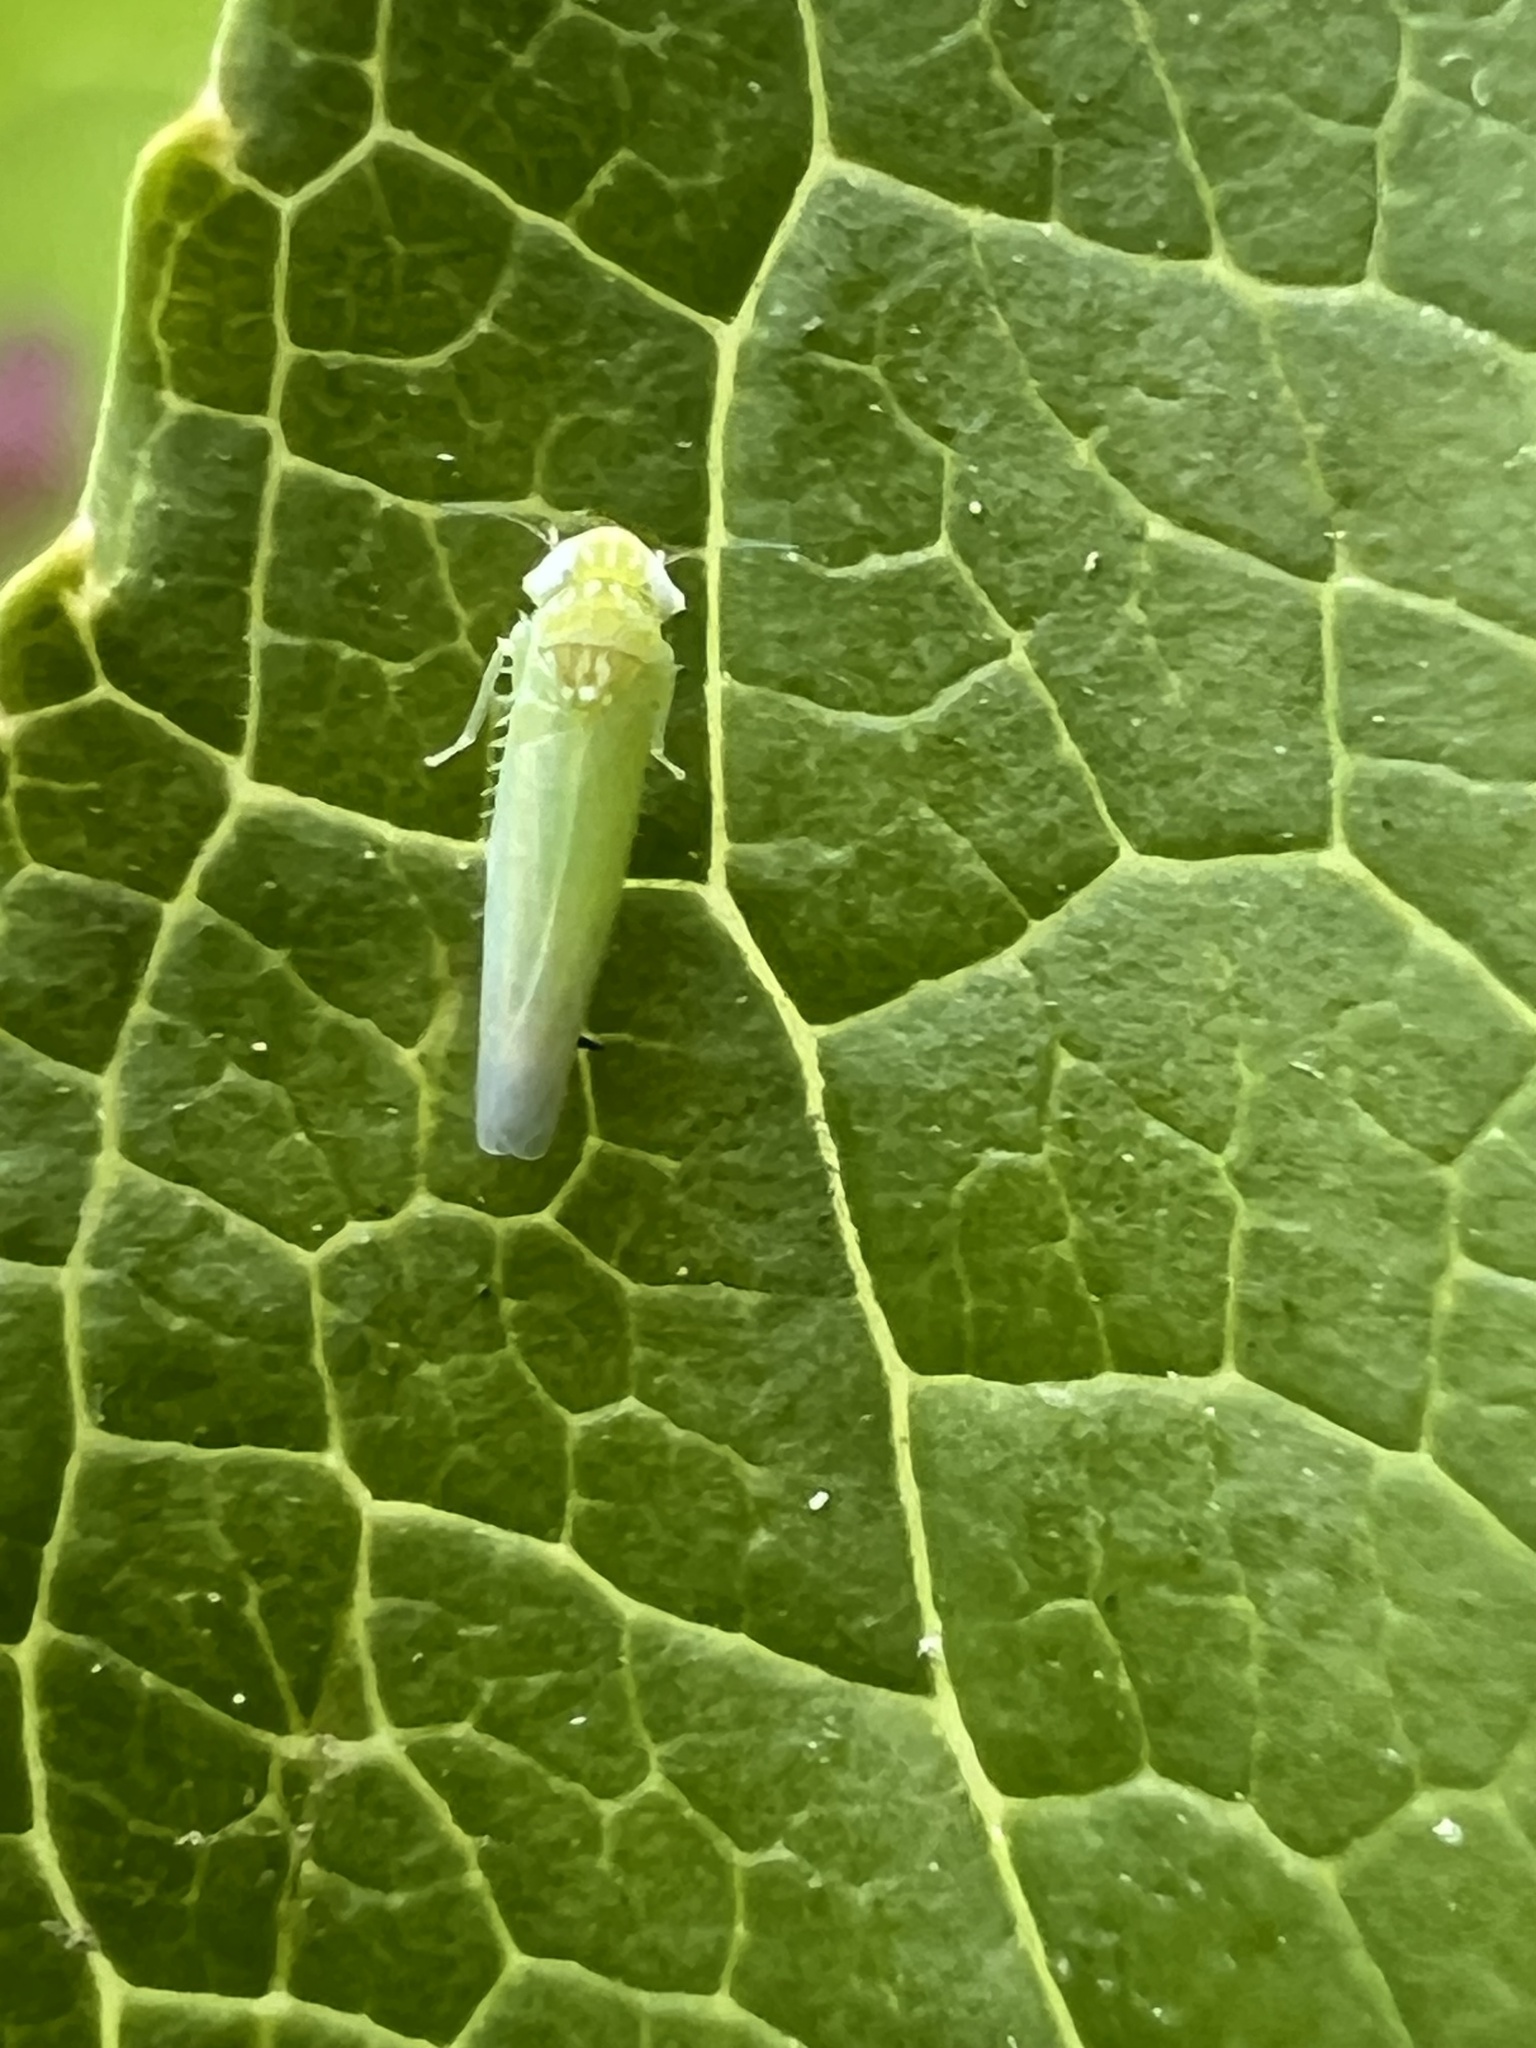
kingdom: Animalia
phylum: Arthropoda
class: Insecta
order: Hemiptera
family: Cicadellidae
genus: Empoasca
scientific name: Empoasca fabae
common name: Potato leafhopper
